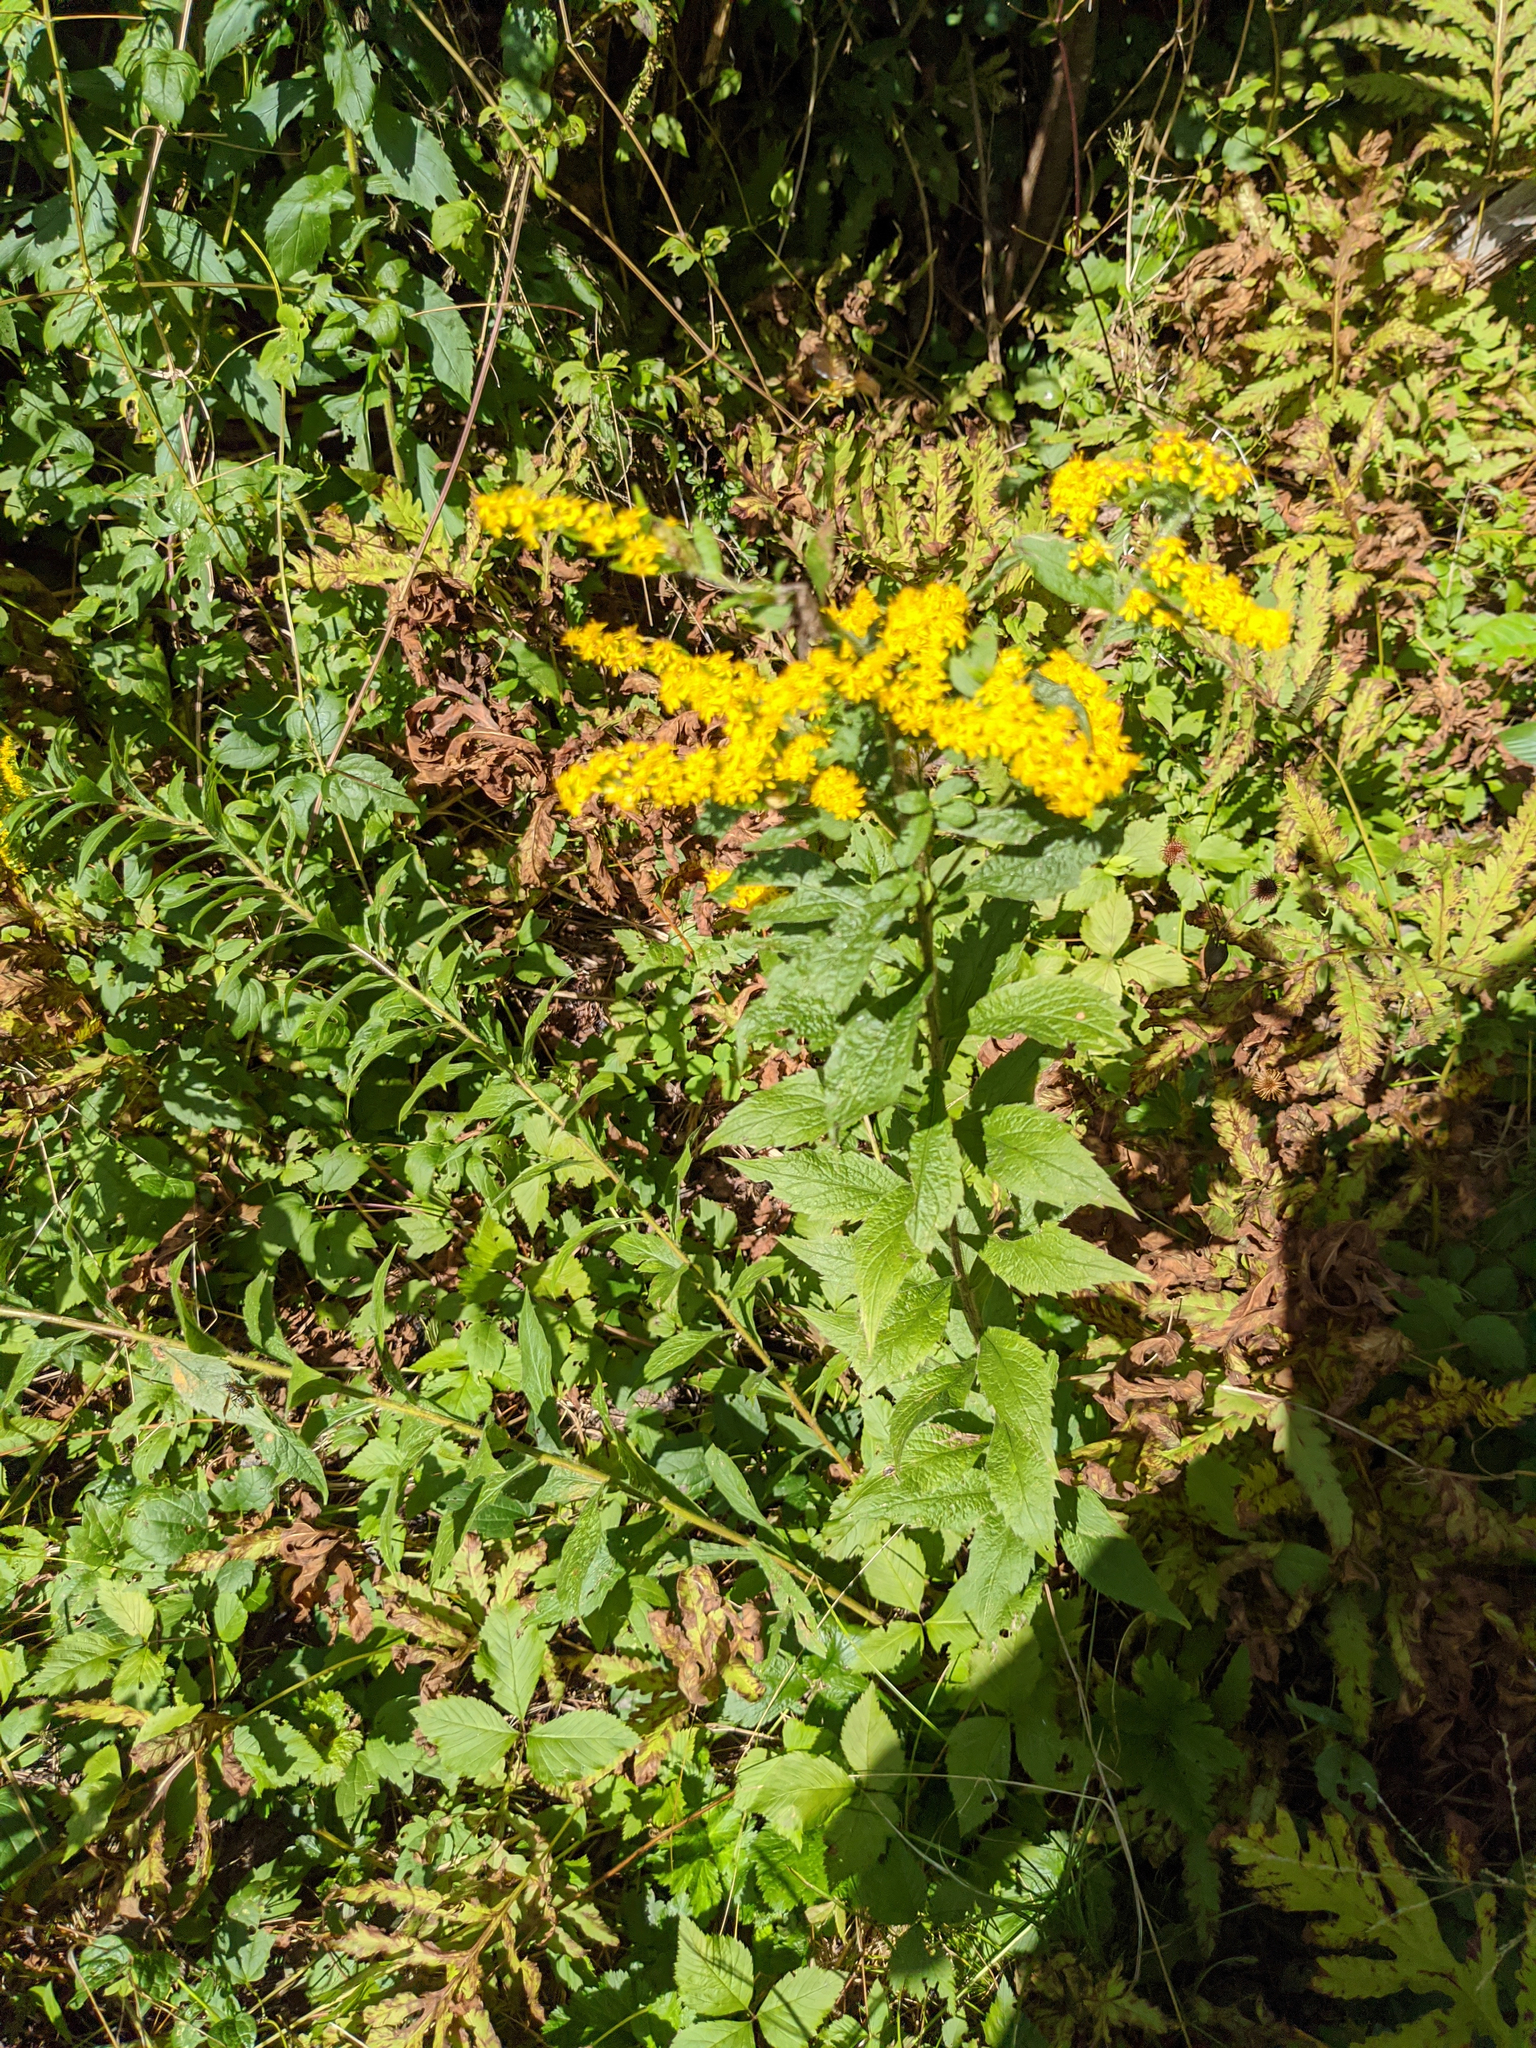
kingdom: Plantae
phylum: Tracheophyta
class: Magnoliopsida
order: Asterales
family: Asteraceae
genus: Solidago
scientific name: Solidago rugosa
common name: Rough-stemmed goldenrod
